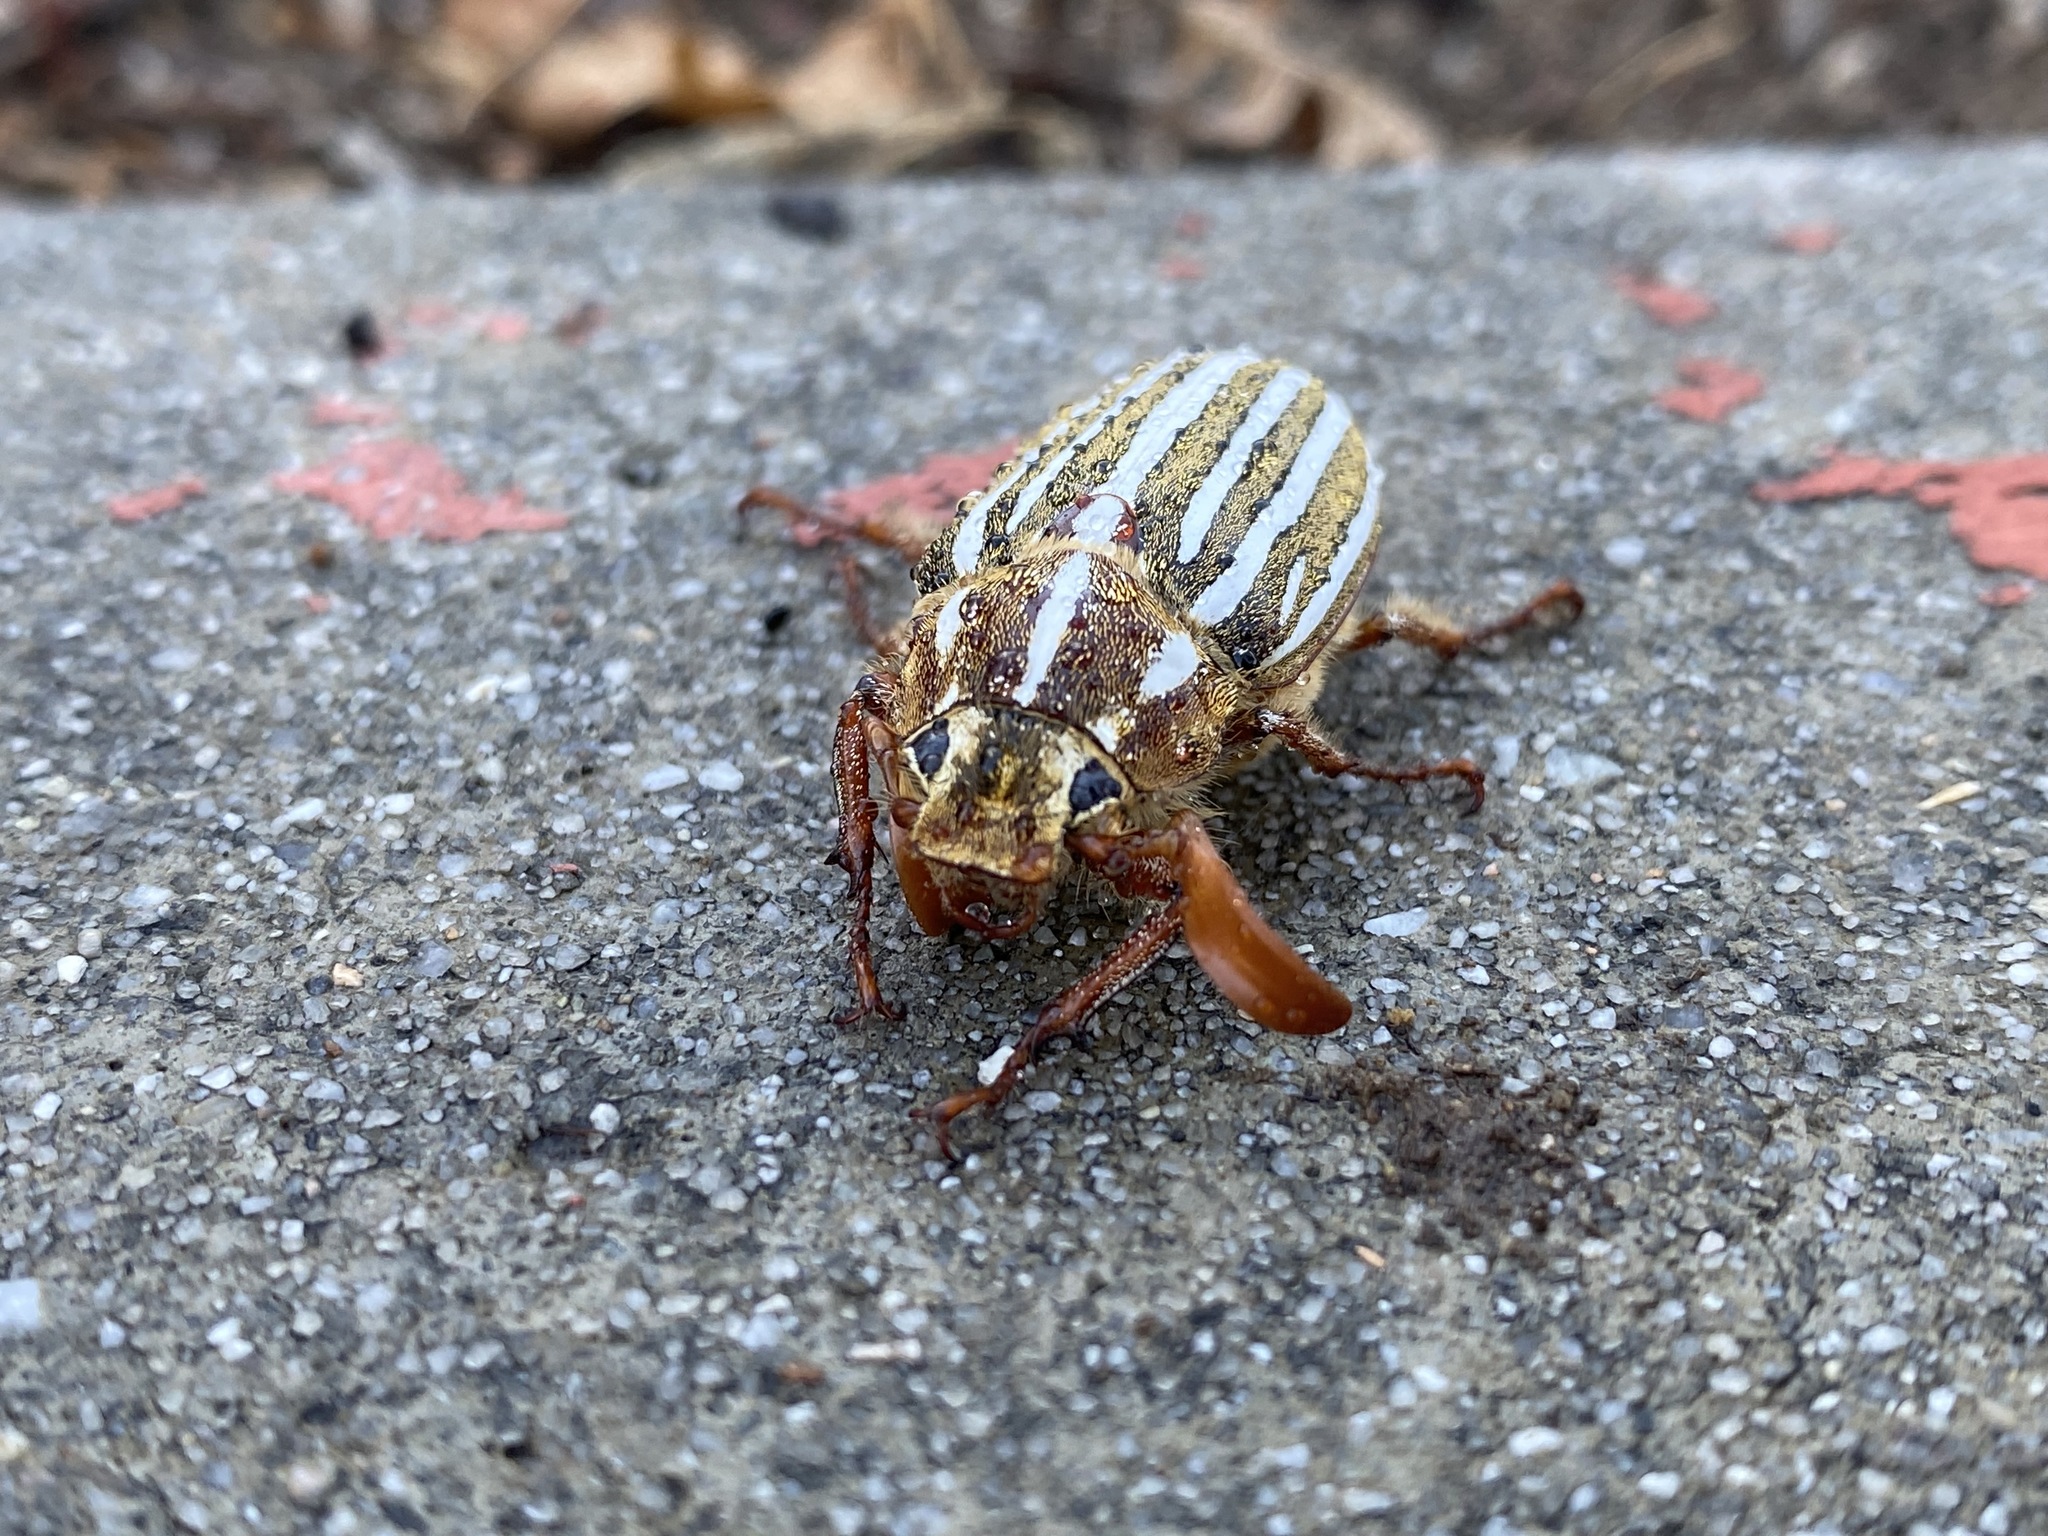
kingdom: Animalia
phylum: Arthropoda
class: Insecta
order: Coleoptera
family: Scarabaeidae
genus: Polyphylla
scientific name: Polyphylla decemlineata
